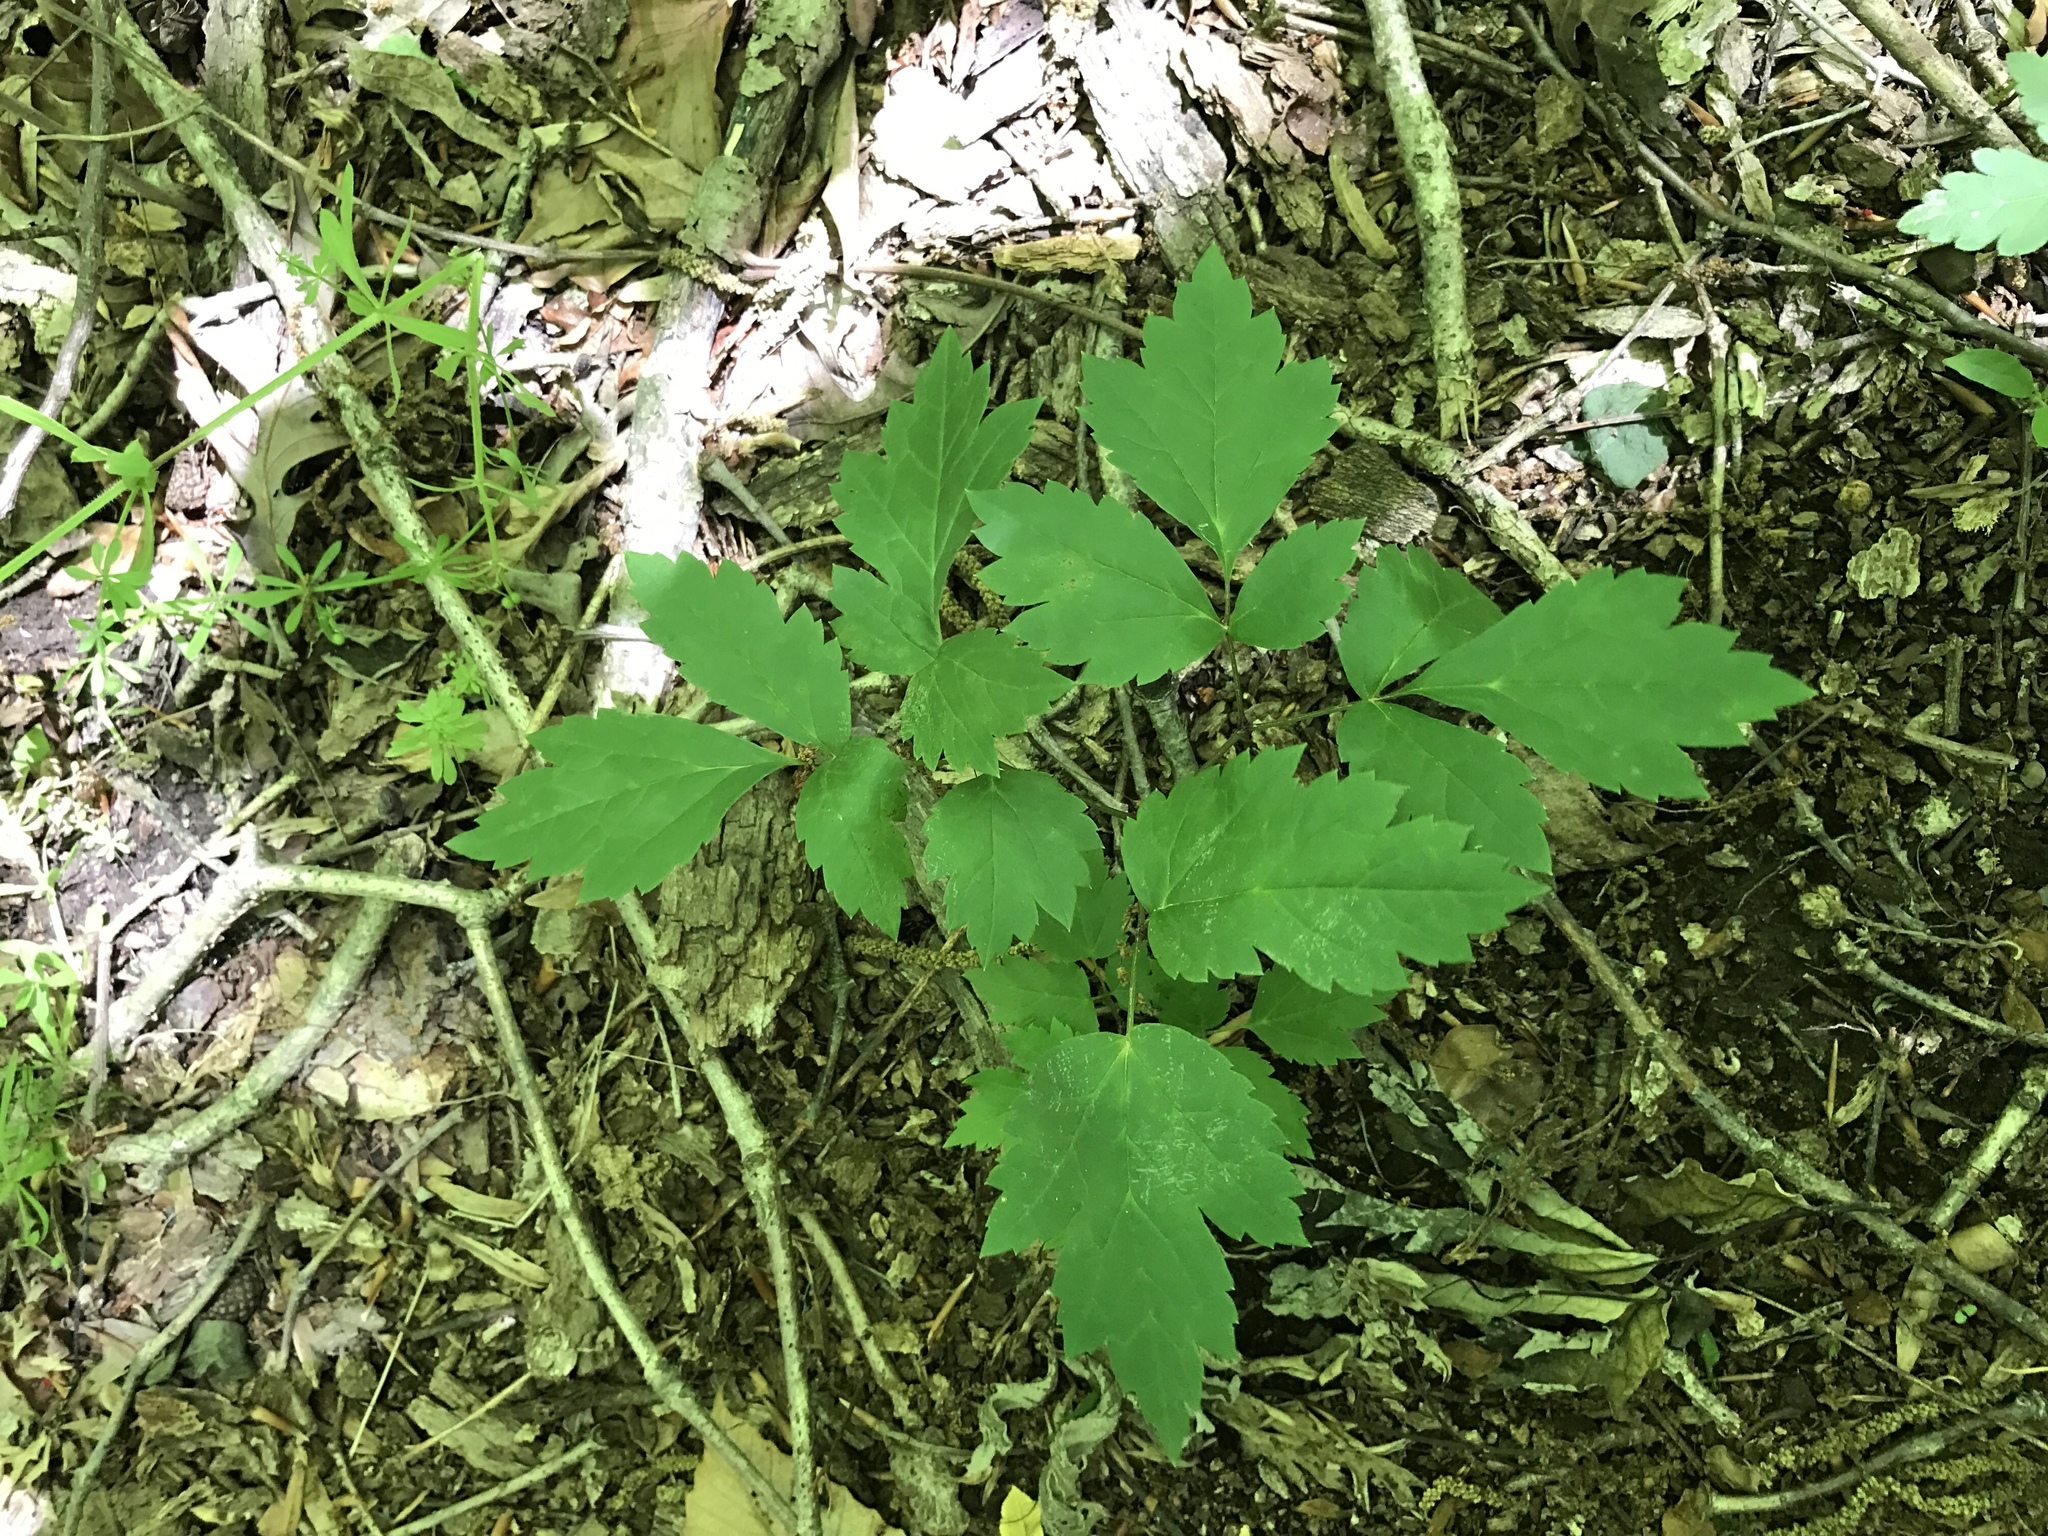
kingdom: Plantae
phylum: Tracheophyta
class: Magnoliopsida
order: Ranunculales
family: Ranunculaceae
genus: Actaea
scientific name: Actaea racemosa
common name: Black cohosh
